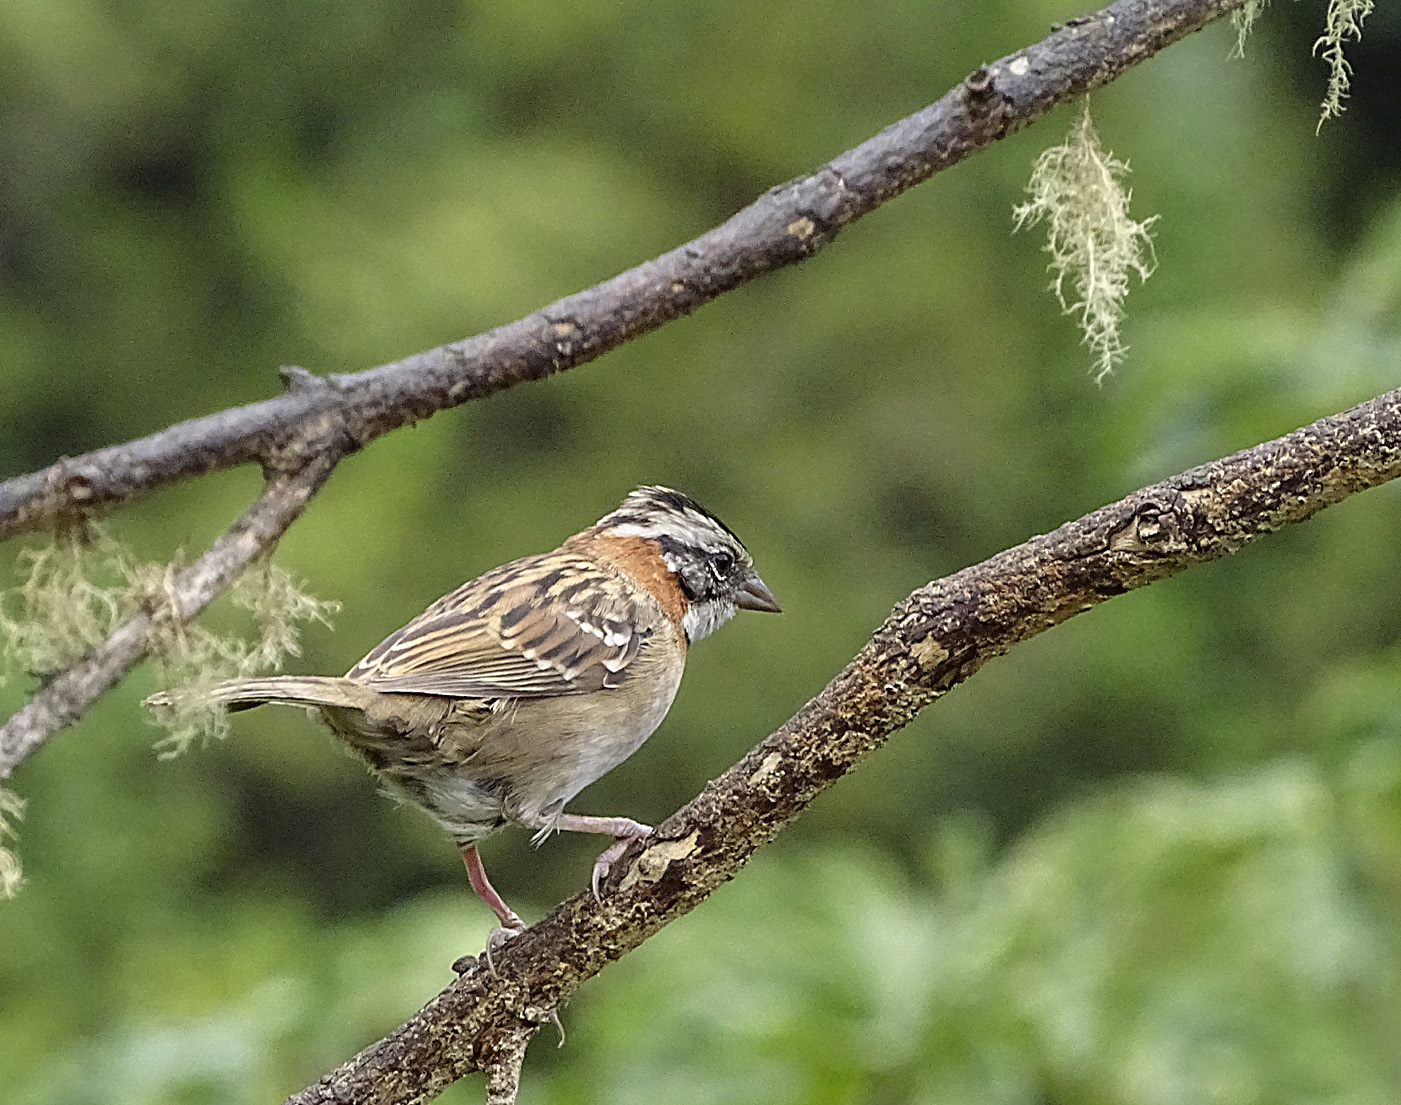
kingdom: Animalia
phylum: Chordata
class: Aves
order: Passeriformes
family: Passerellidae
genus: Zonotrichia
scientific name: Zonotrichia capensis
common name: Rufous-collared sparrow
